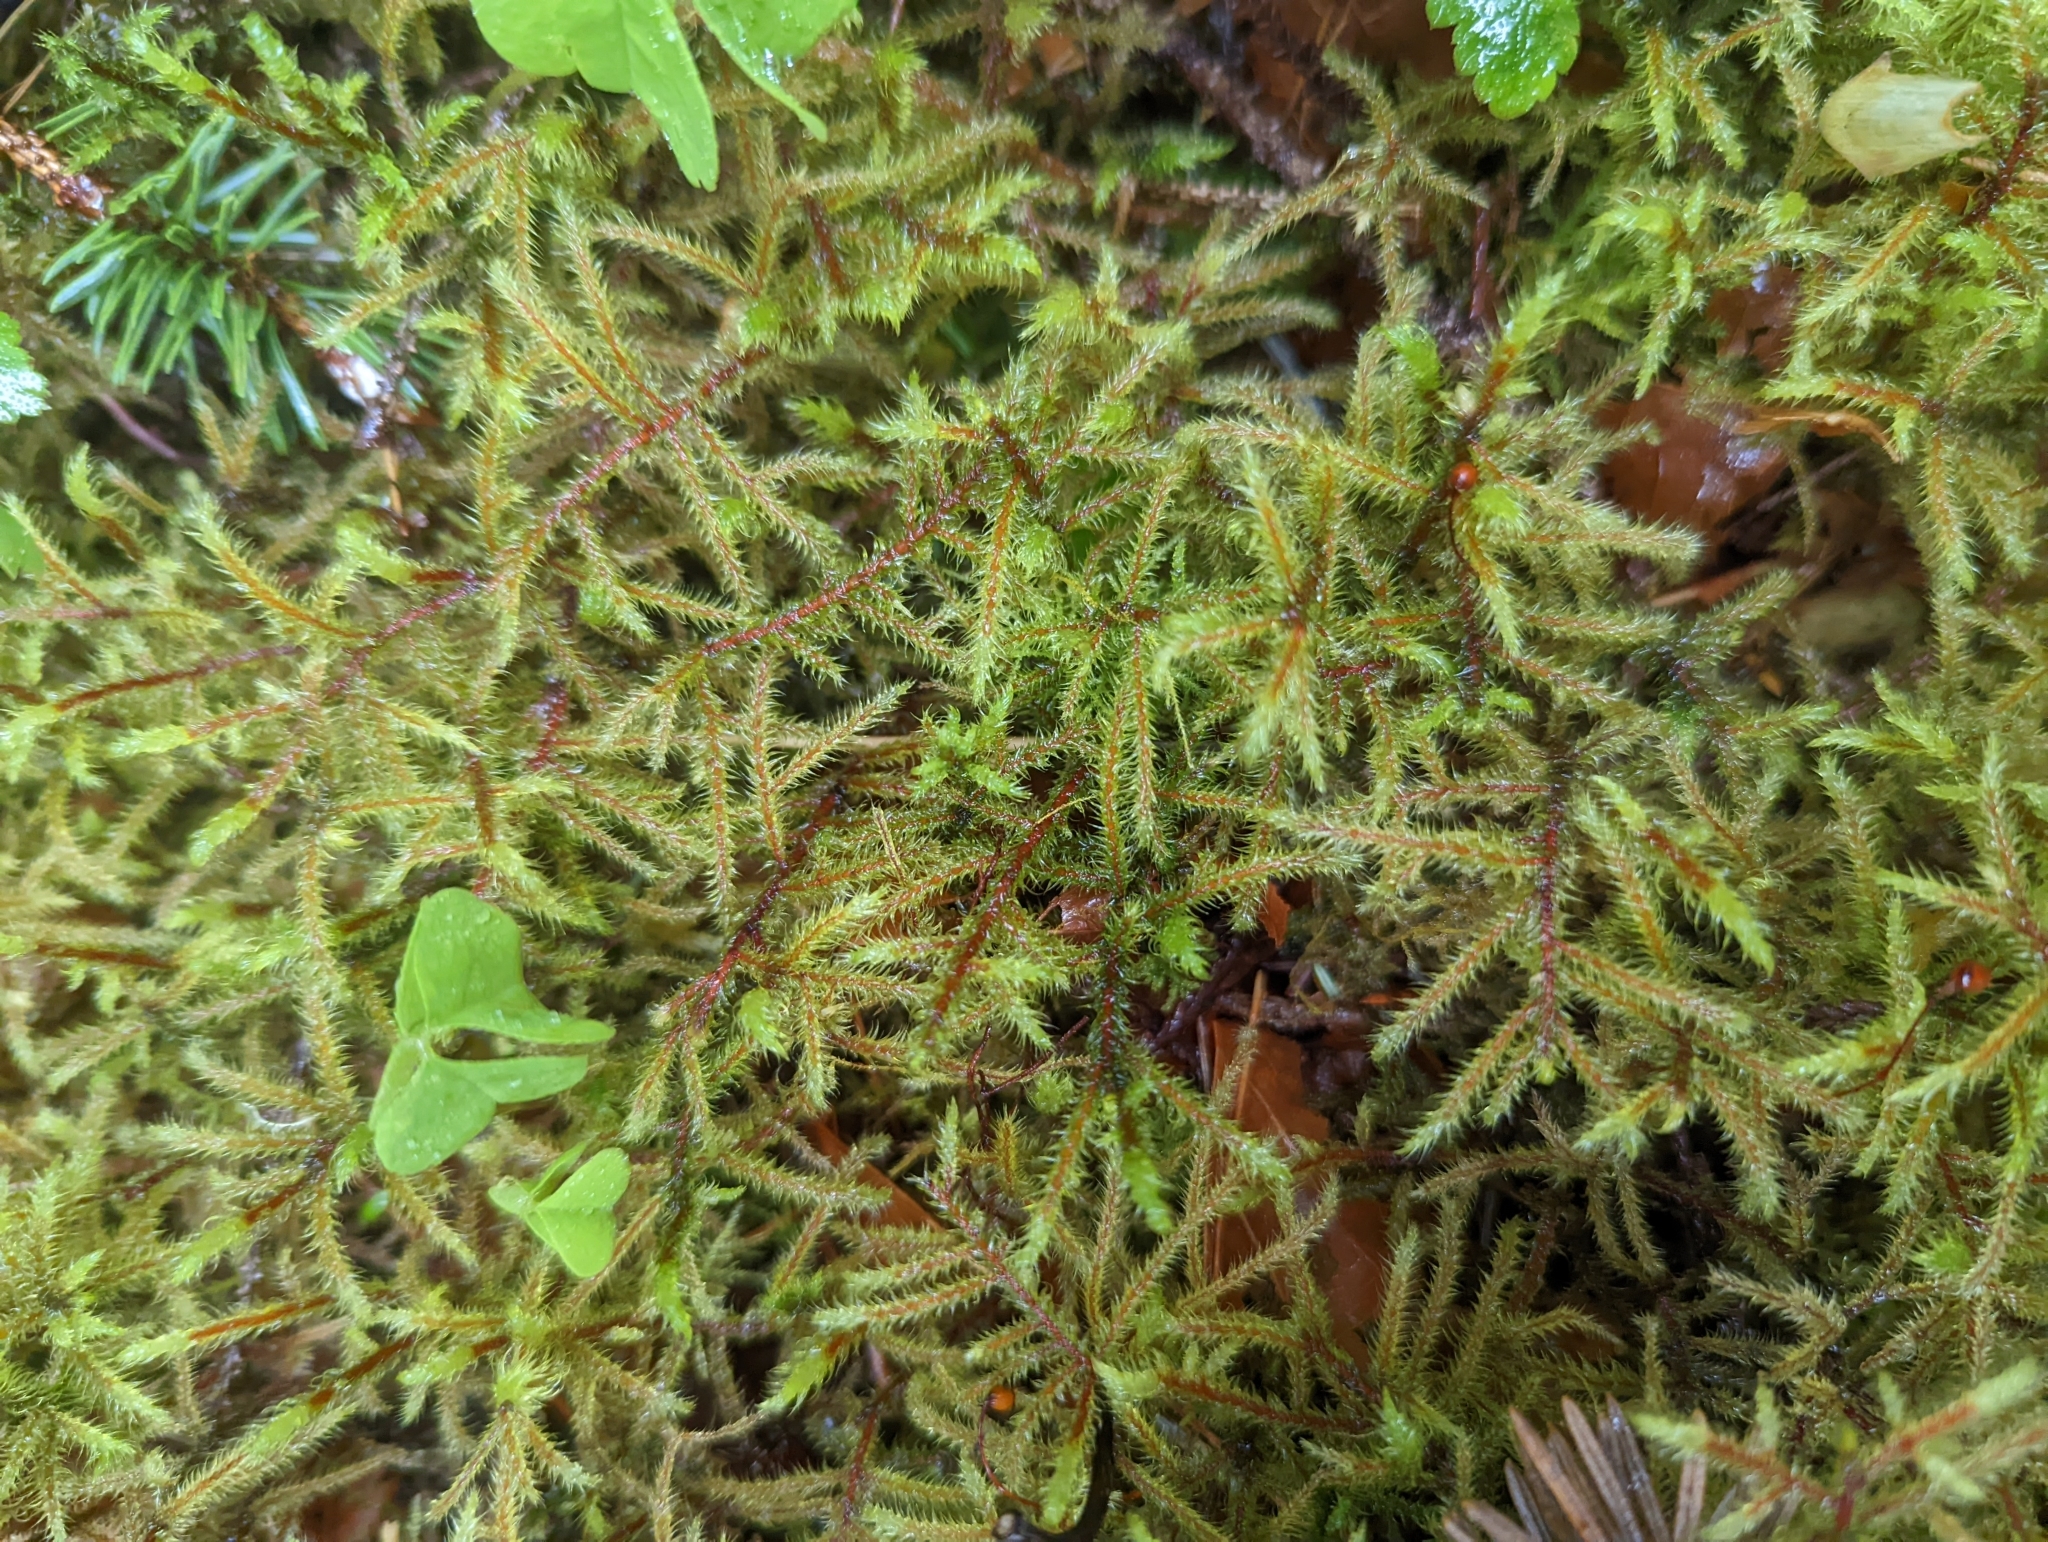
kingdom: Plantae
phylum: Bryophyta
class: Bryopsida
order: Hypnales
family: Hylocomiaceae
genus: Rhytidiadelphus
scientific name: Rhytidiadelphus loreus
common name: Lanky moss
